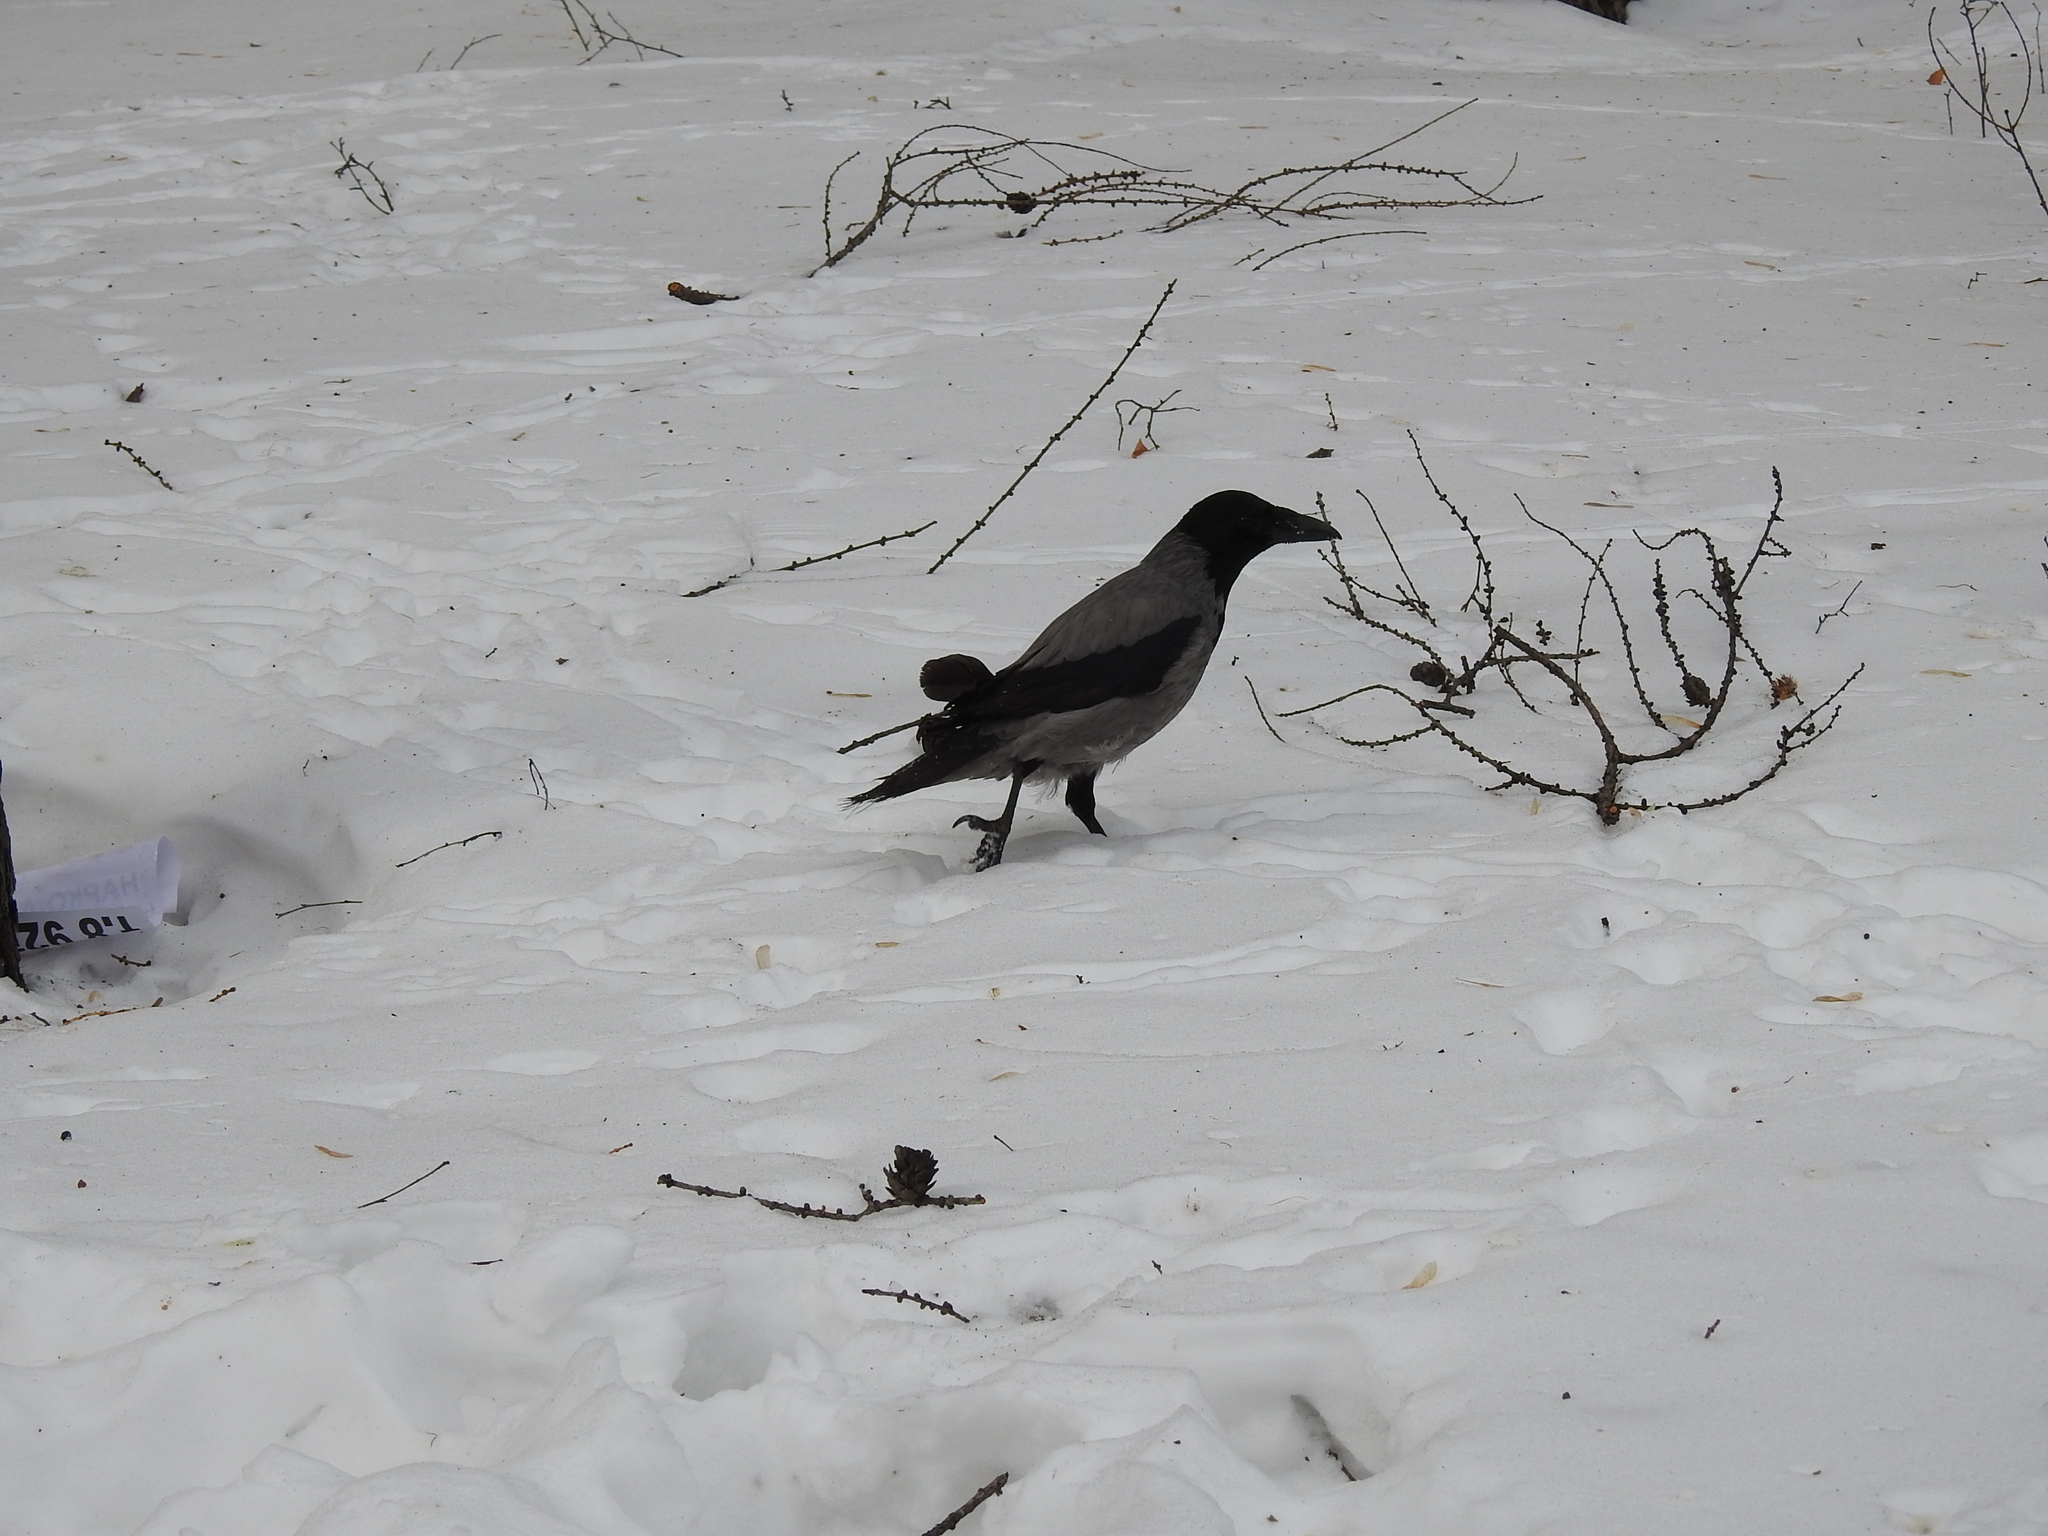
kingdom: Animalia
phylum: Chordata
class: Aves
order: Passeriformes
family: Corvidae
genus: Corvus
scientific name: Corvus cornix
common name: Hooded crow
